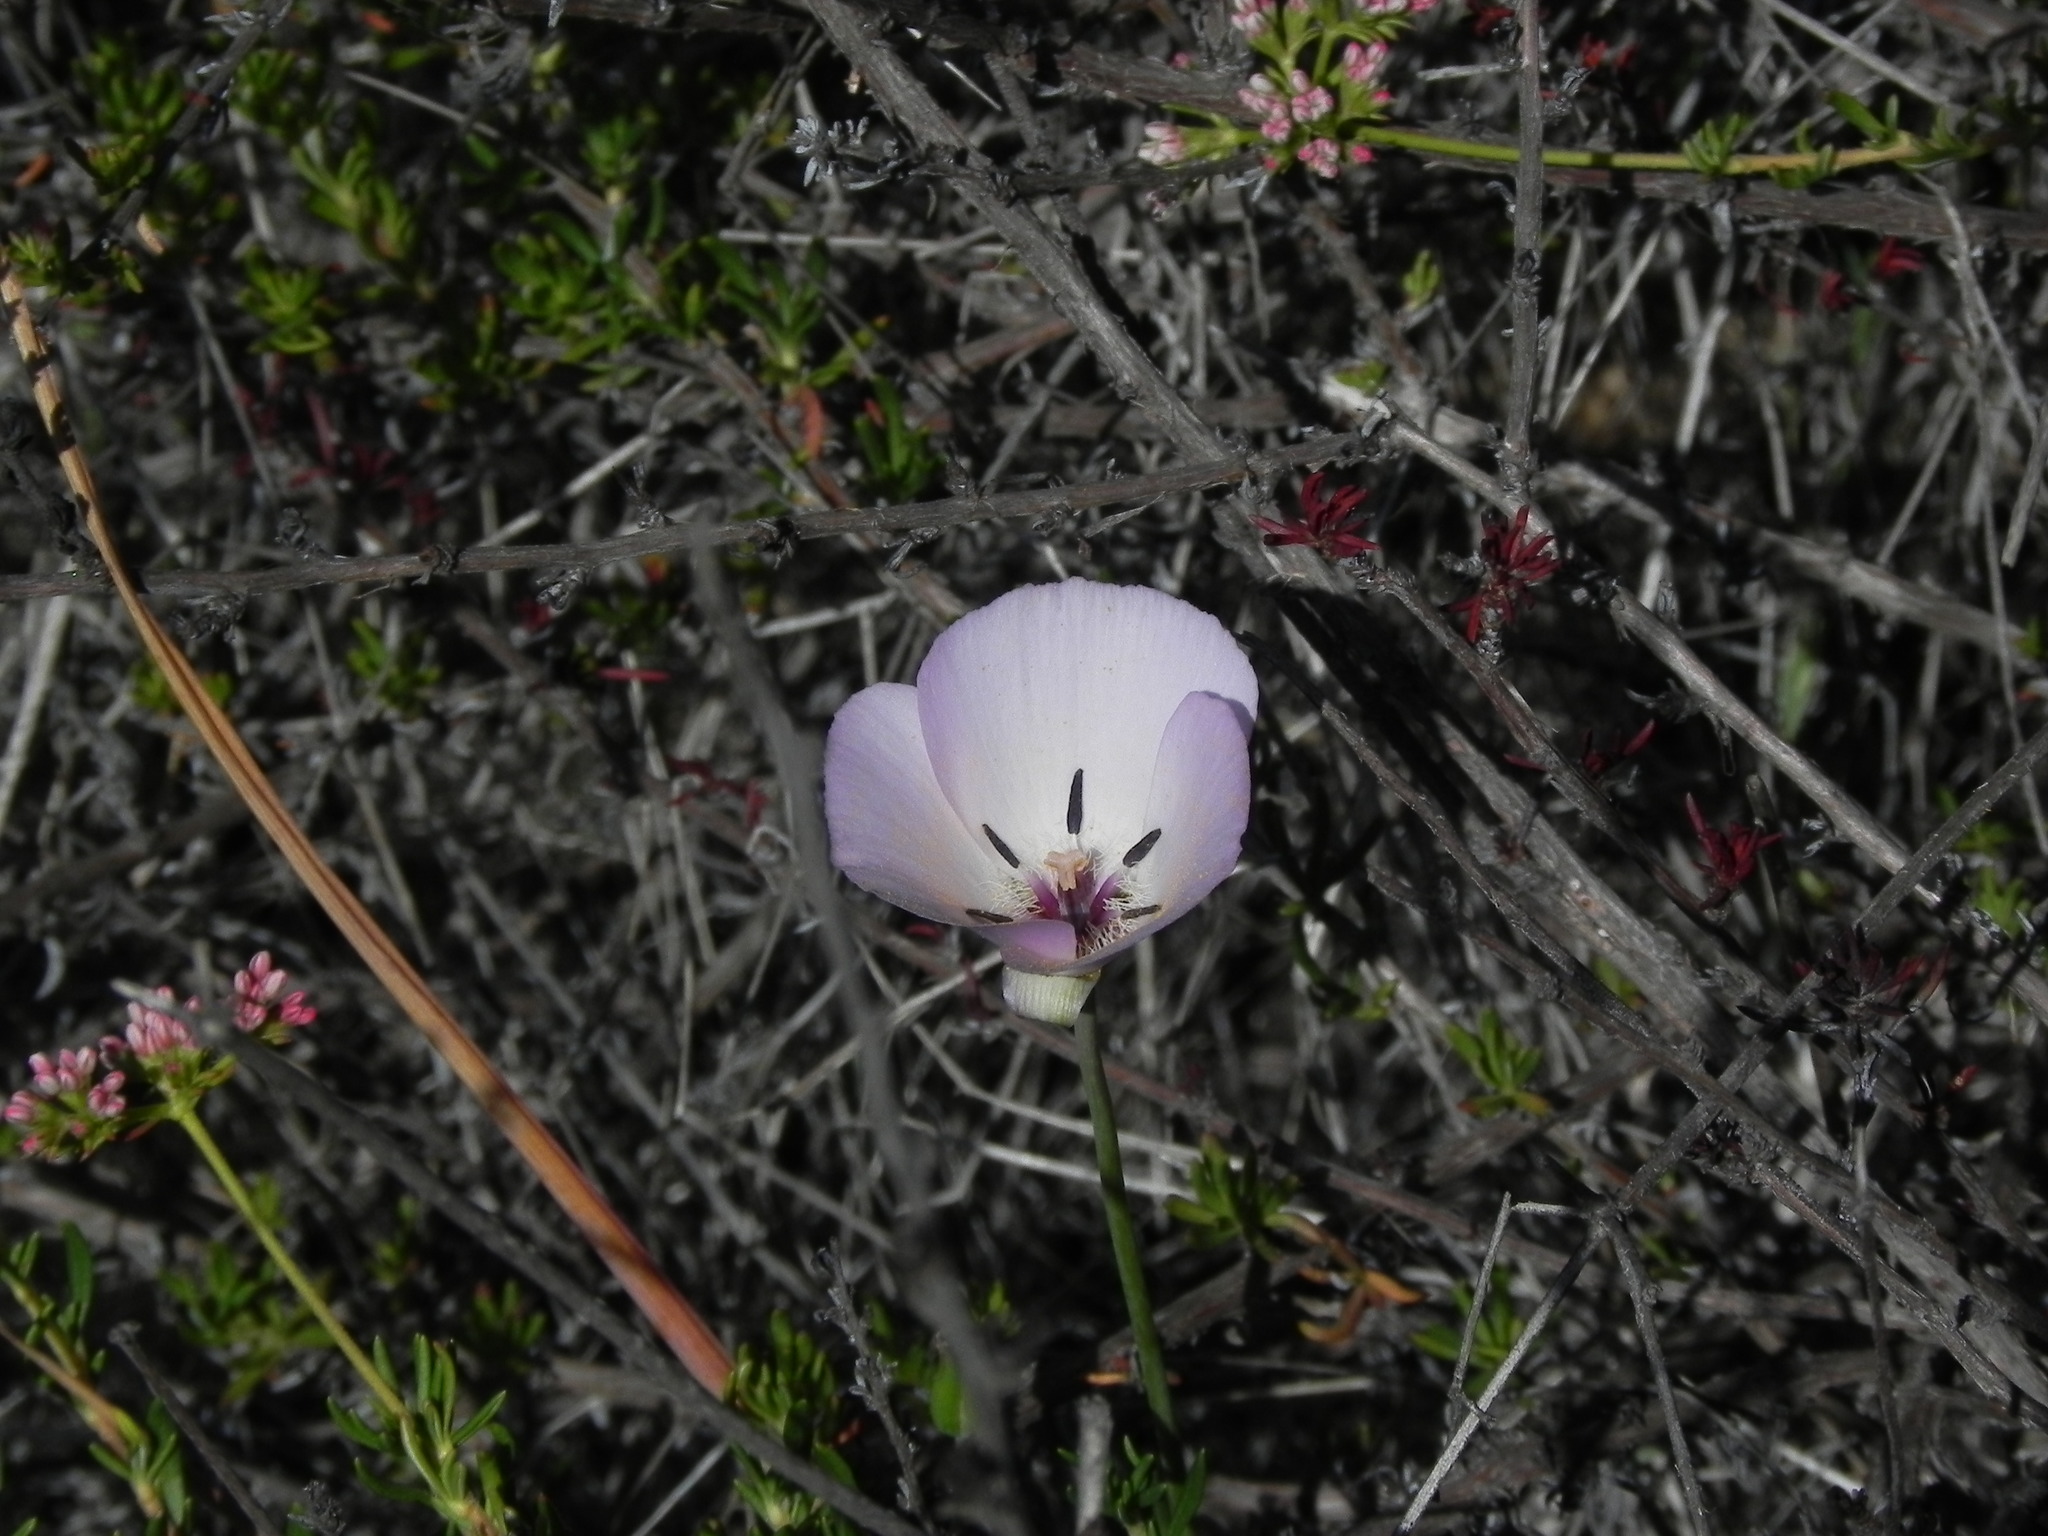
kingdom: Plantae
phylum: Tracheophyta
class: Liliopsida
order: Liliales
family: Liliaceae
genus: Calochortus
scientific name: Calochortus splendens
